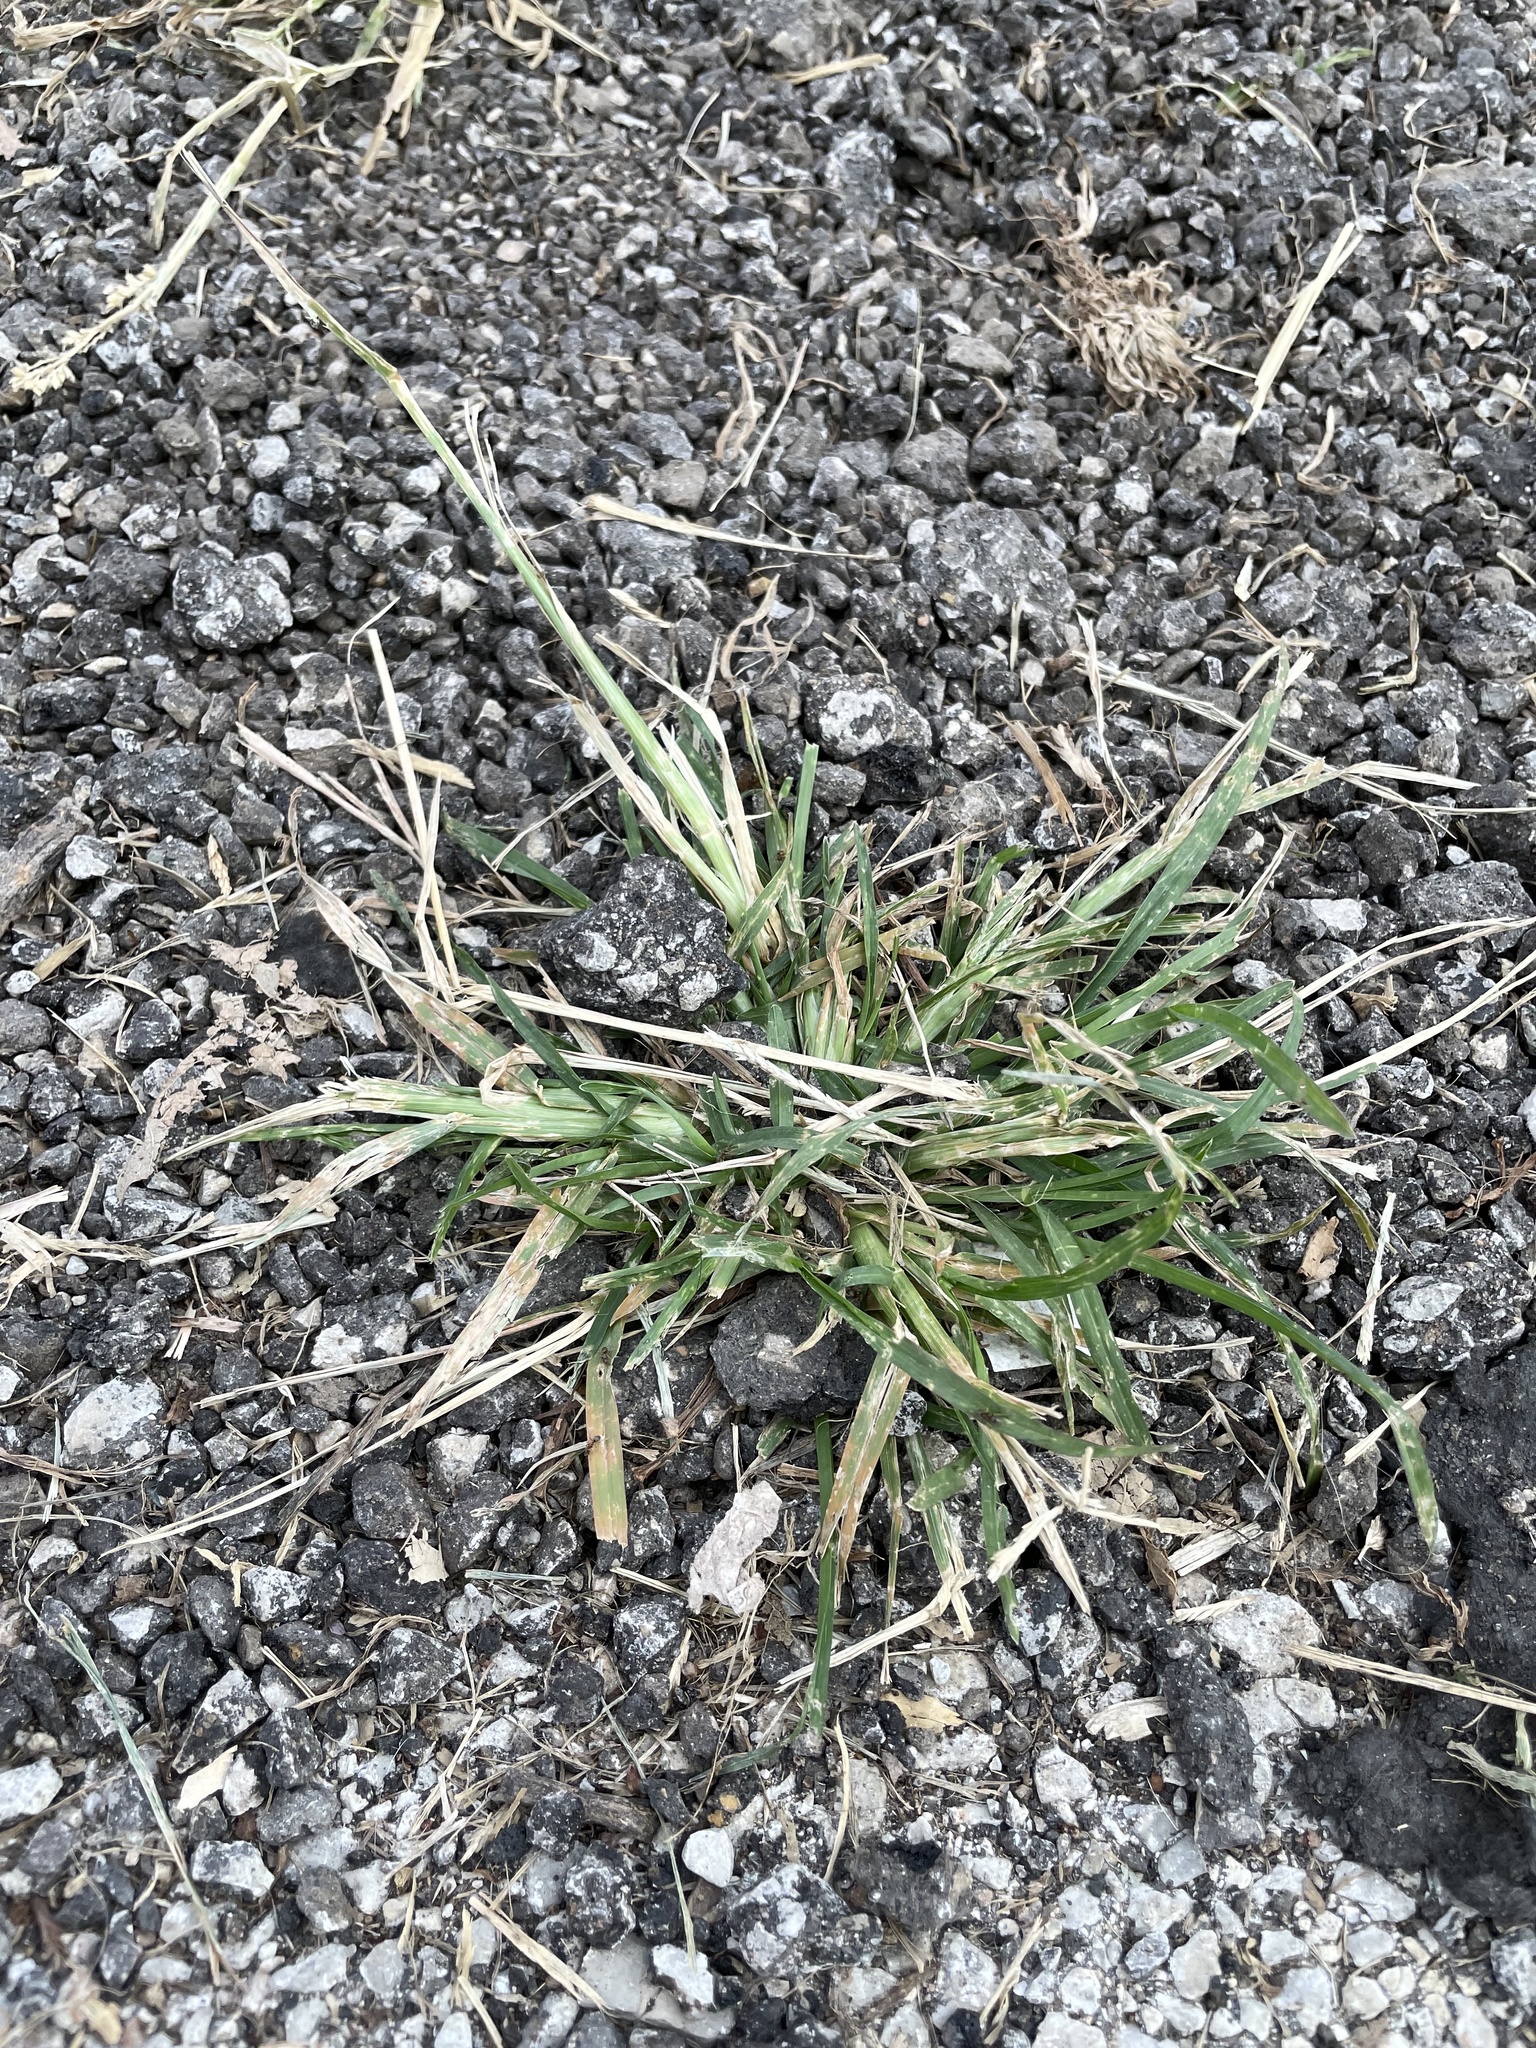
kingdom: Plantae
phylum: Tracheophyta
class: Liliopsida
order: Poales
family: Poaceae
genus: Eleusine
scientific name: Eleusine indica
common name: Yard-grass
